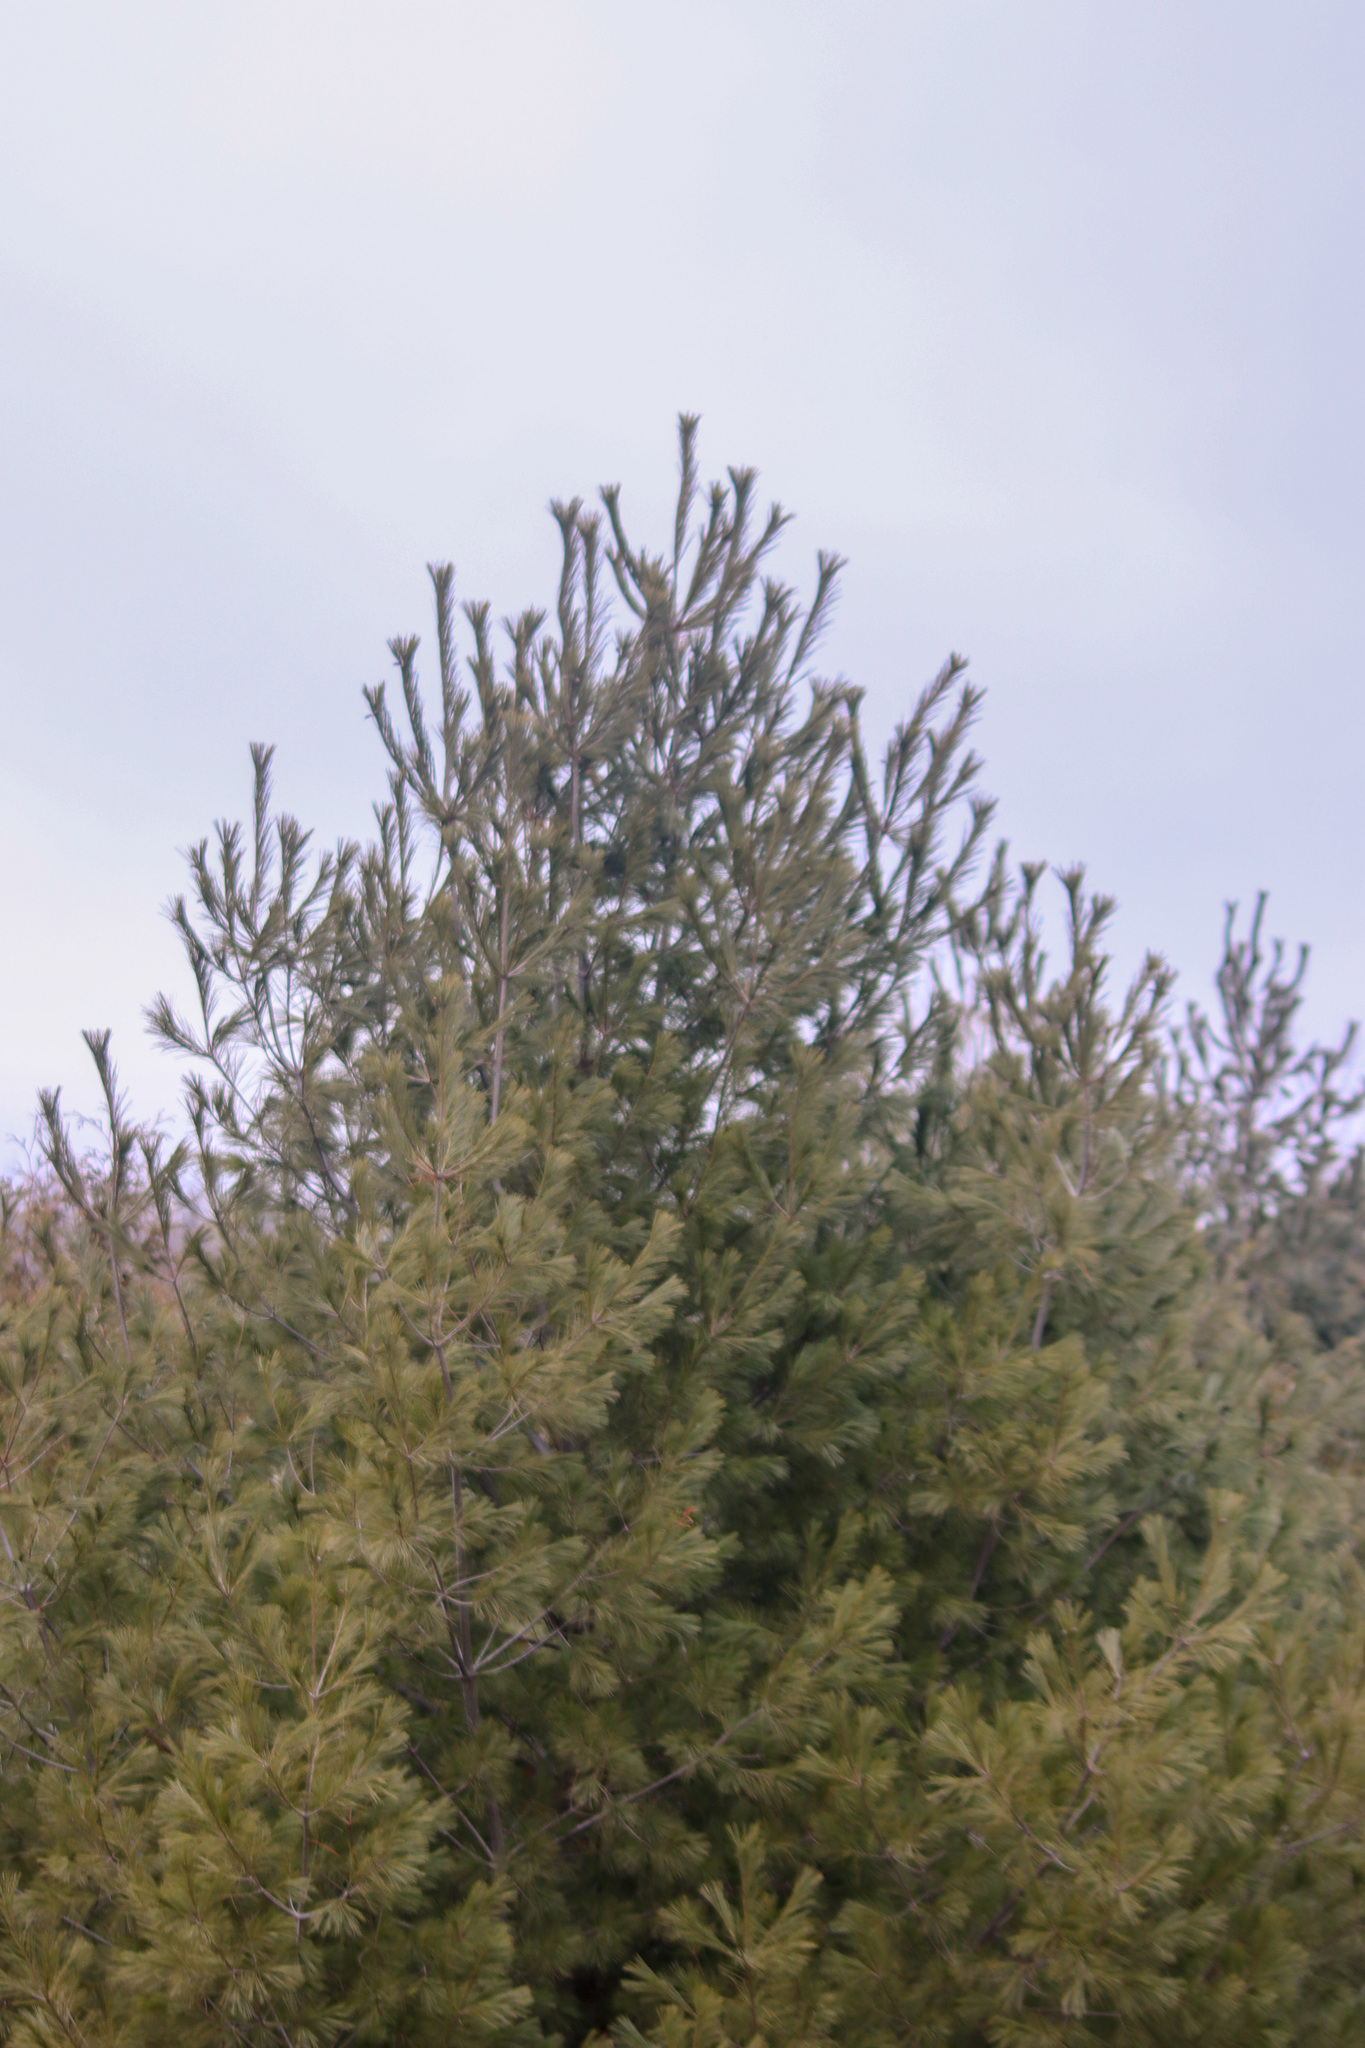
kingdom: Plantae
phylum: Tracheophyta
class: Pinopsida
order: Pinales
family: Pinaceae
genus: Pinus
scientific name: Pinus strobus
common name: Weymouth pine
